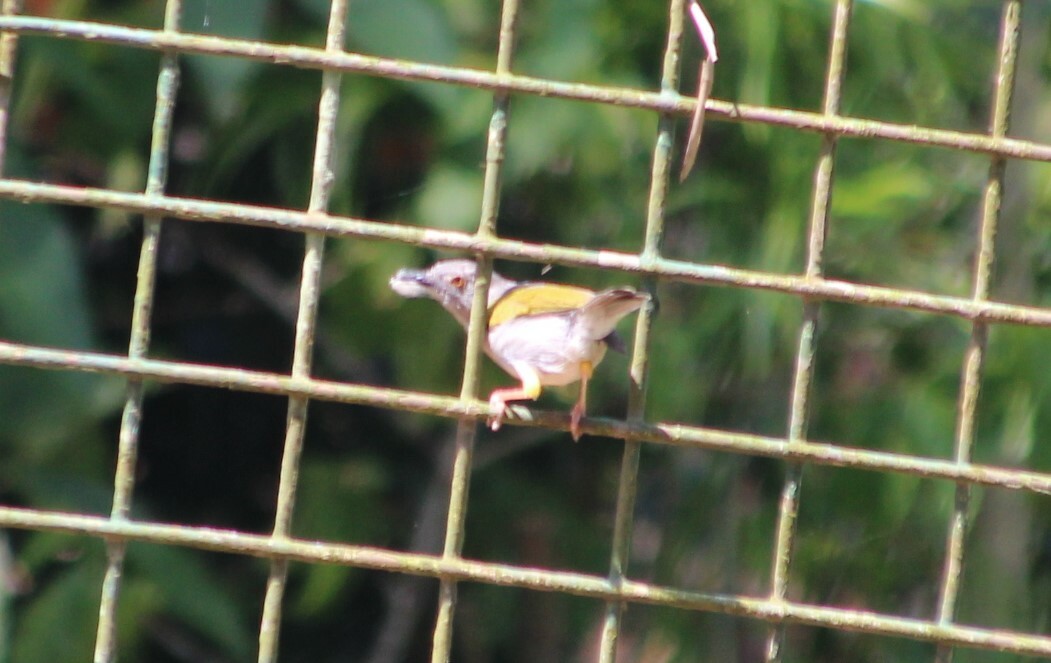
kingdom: Animalia
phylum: Chordata
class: Aves
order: Passeriformes
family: Cisticolidae
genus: Camaroptera
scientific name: Camaroptera brachyura
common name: Green-backed camaroptera
